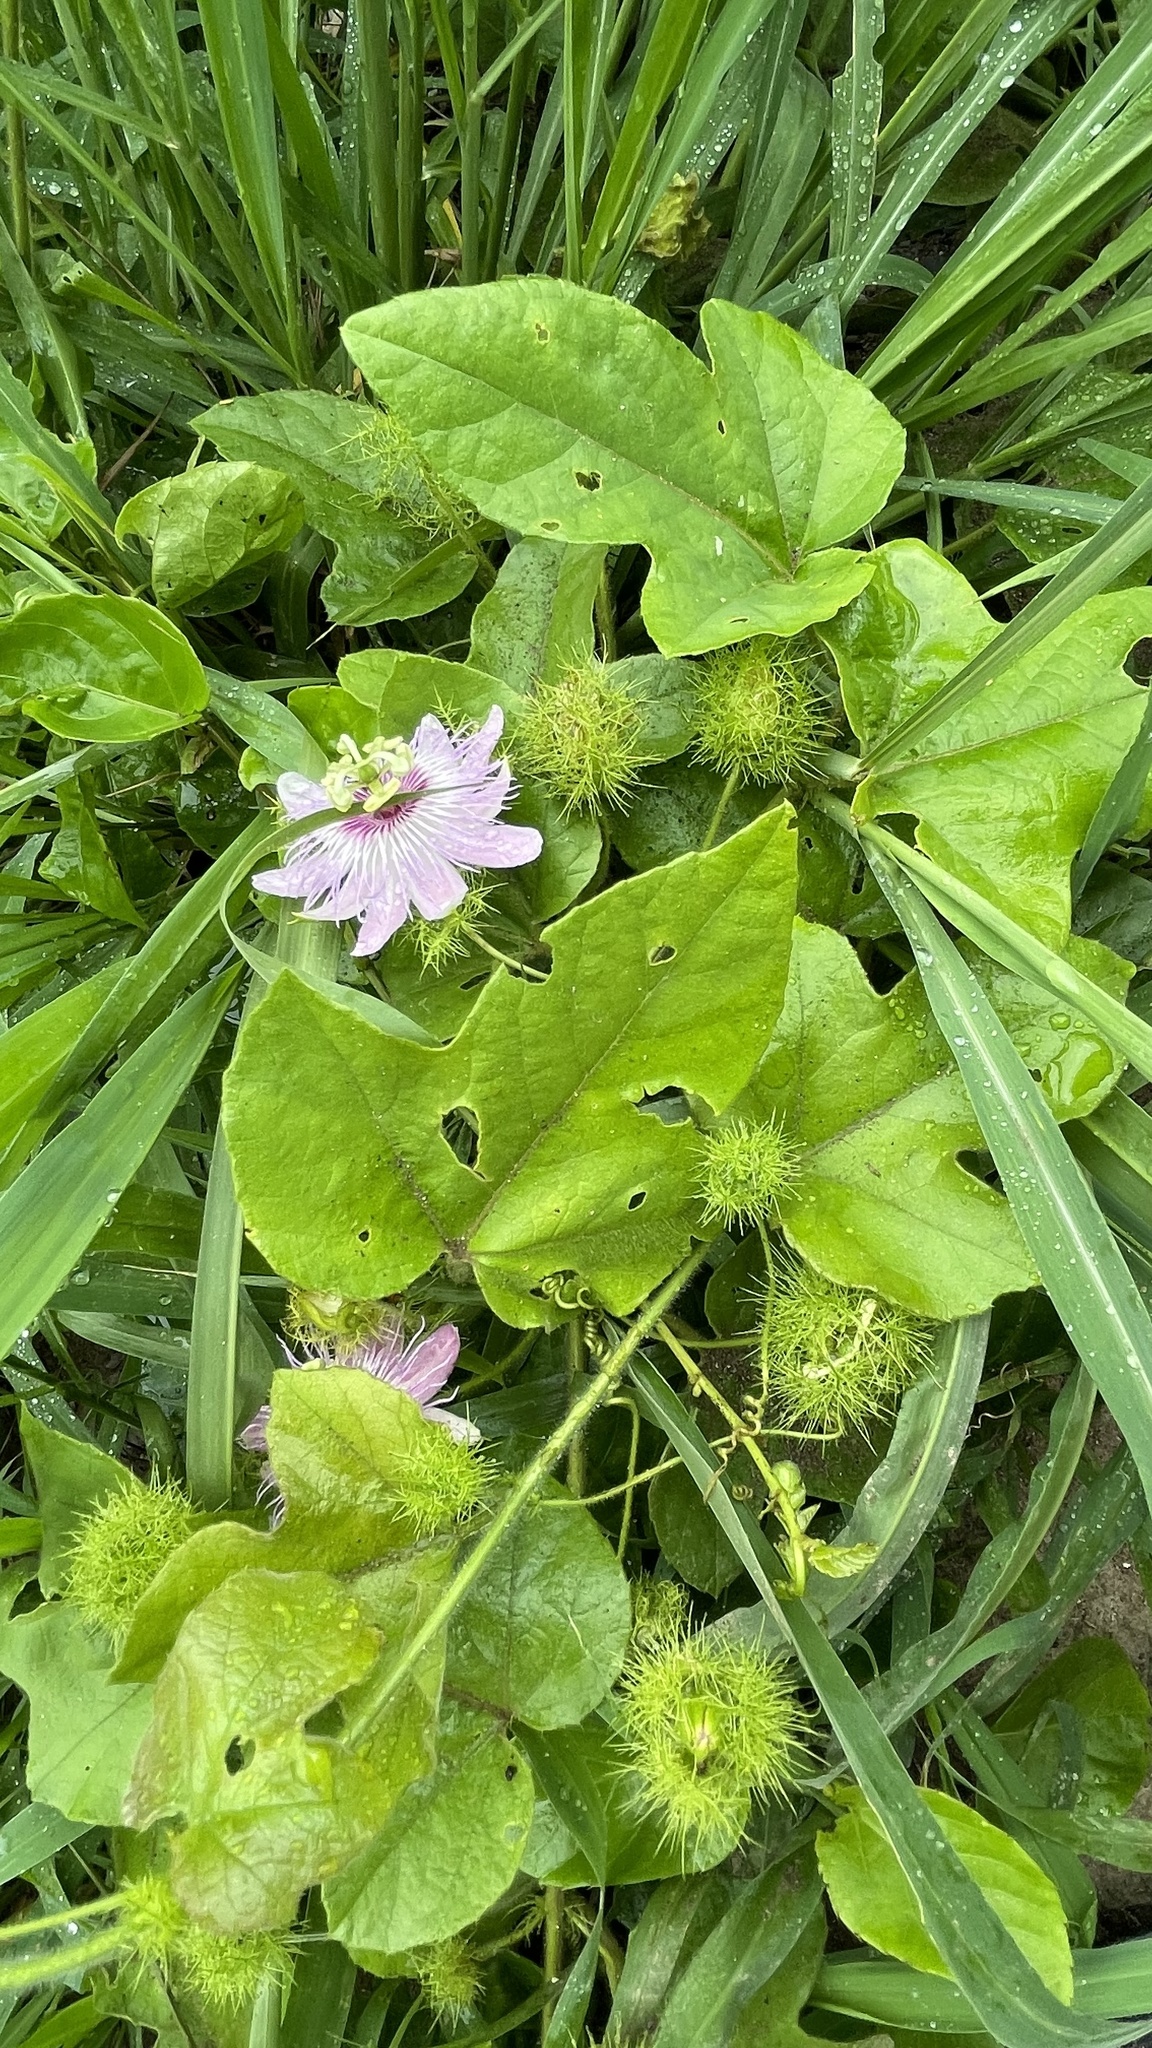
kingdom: Plantae
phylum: Tracheophyta
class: Magnoliopsida
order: Malpighiales
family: Passifloraceae
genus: Passiflora
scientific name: Passiflora foetida
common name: Fetid passionflower
